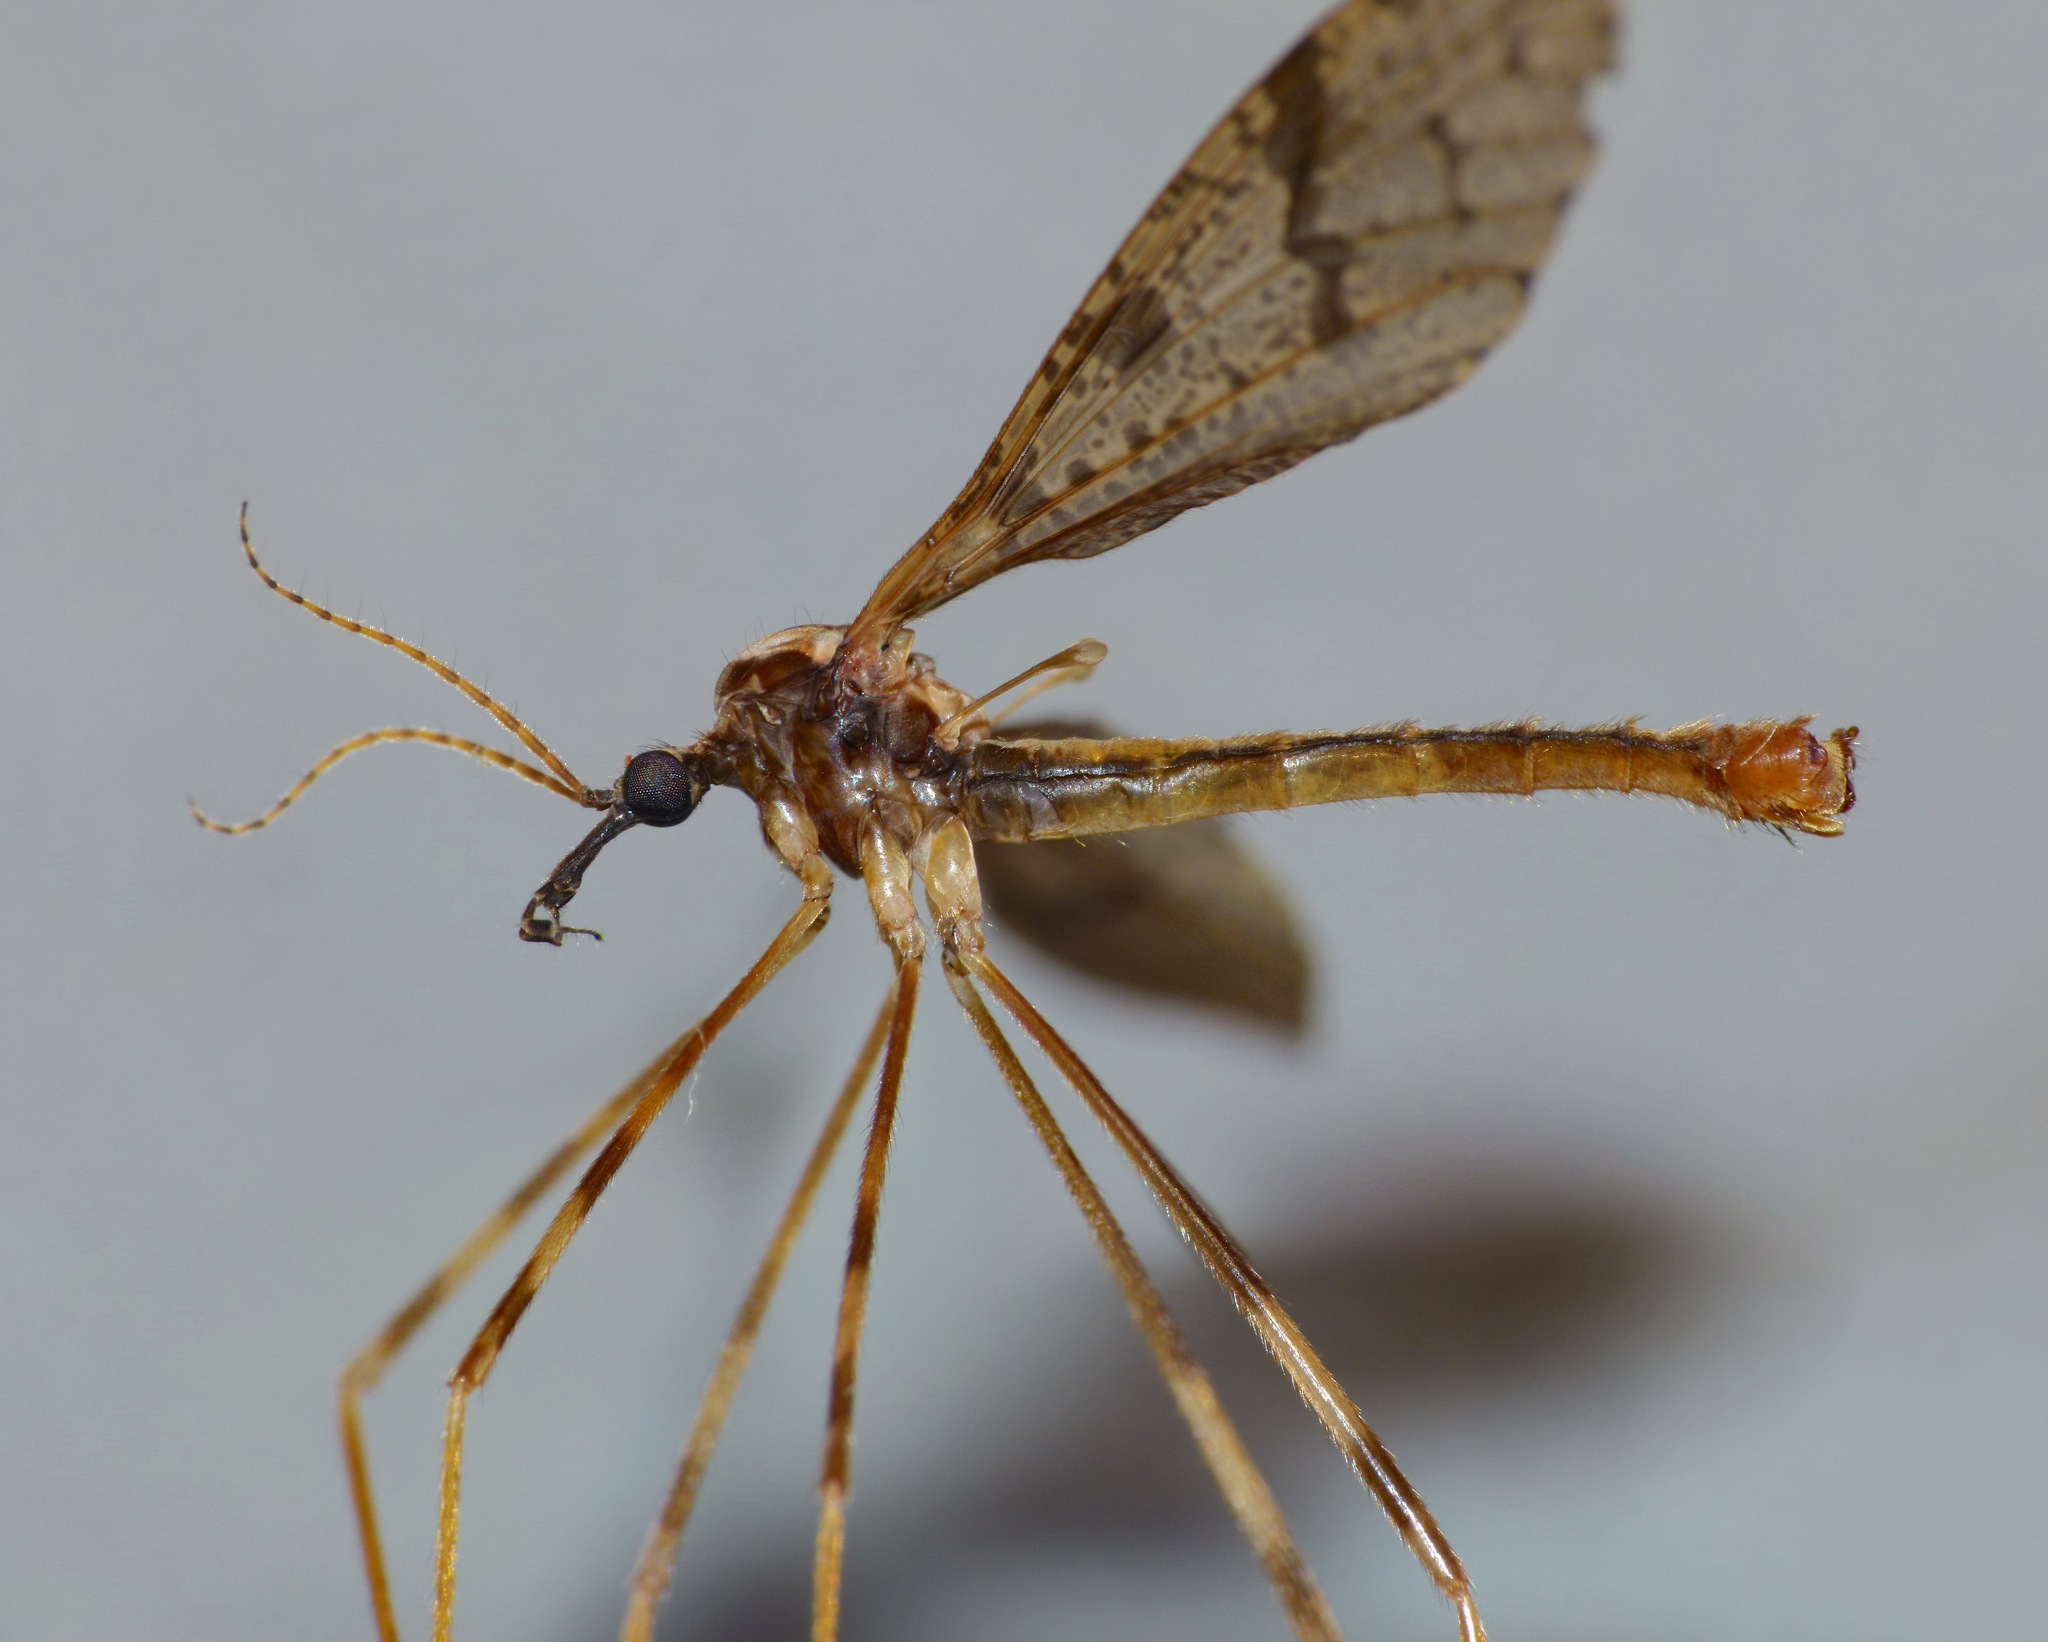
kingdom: Animalia
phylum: Arthropoda
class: Insecta
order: Diptera
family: Limoniidae
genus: Rhamphophila
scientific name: Rhamphophila sinistra
